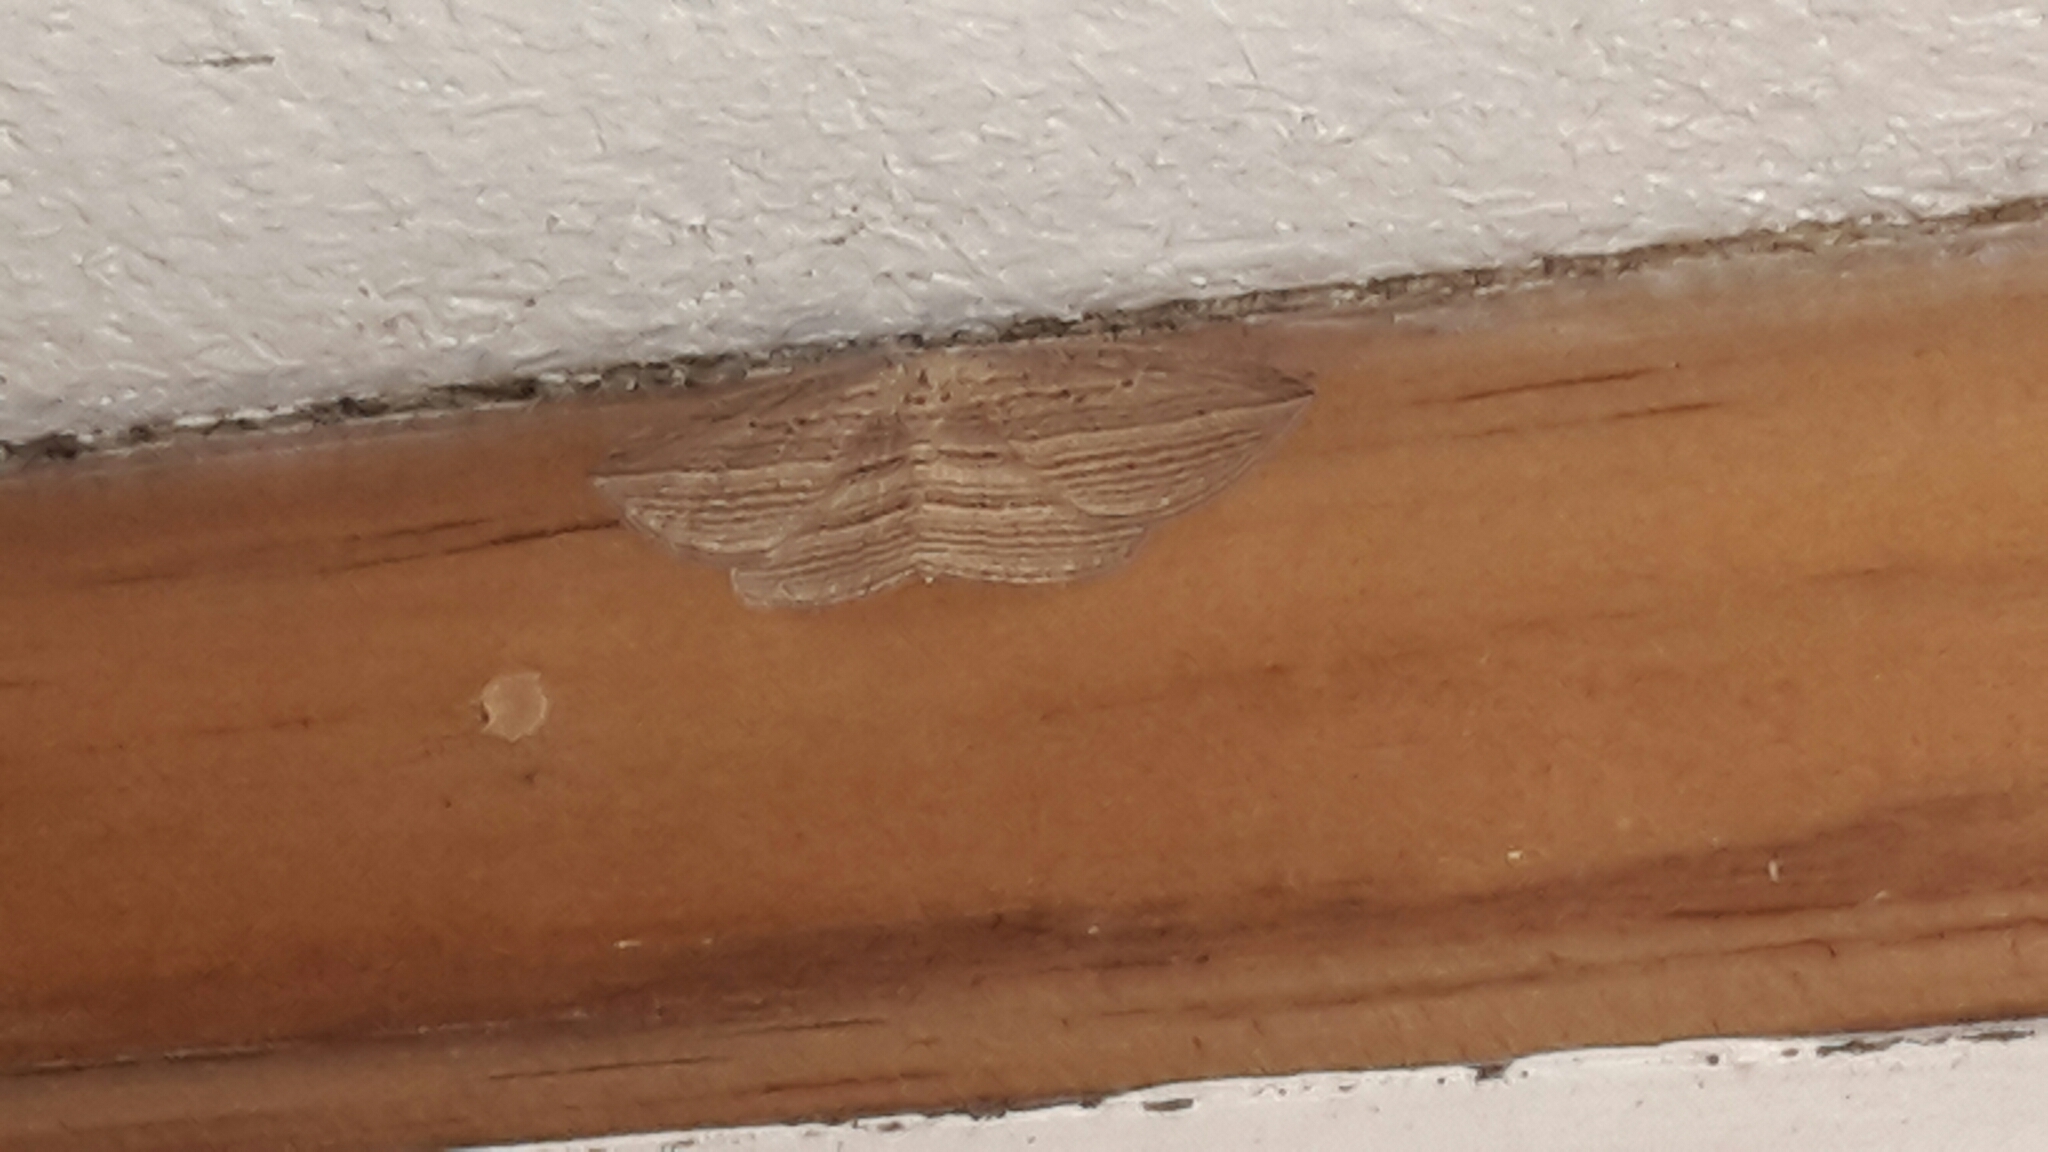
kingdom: Animalia
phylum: Arthropoda
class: Insecta
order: Lepidoptera
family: Geometridae
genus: Epiphryne
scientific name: Epiphryne verriculata
